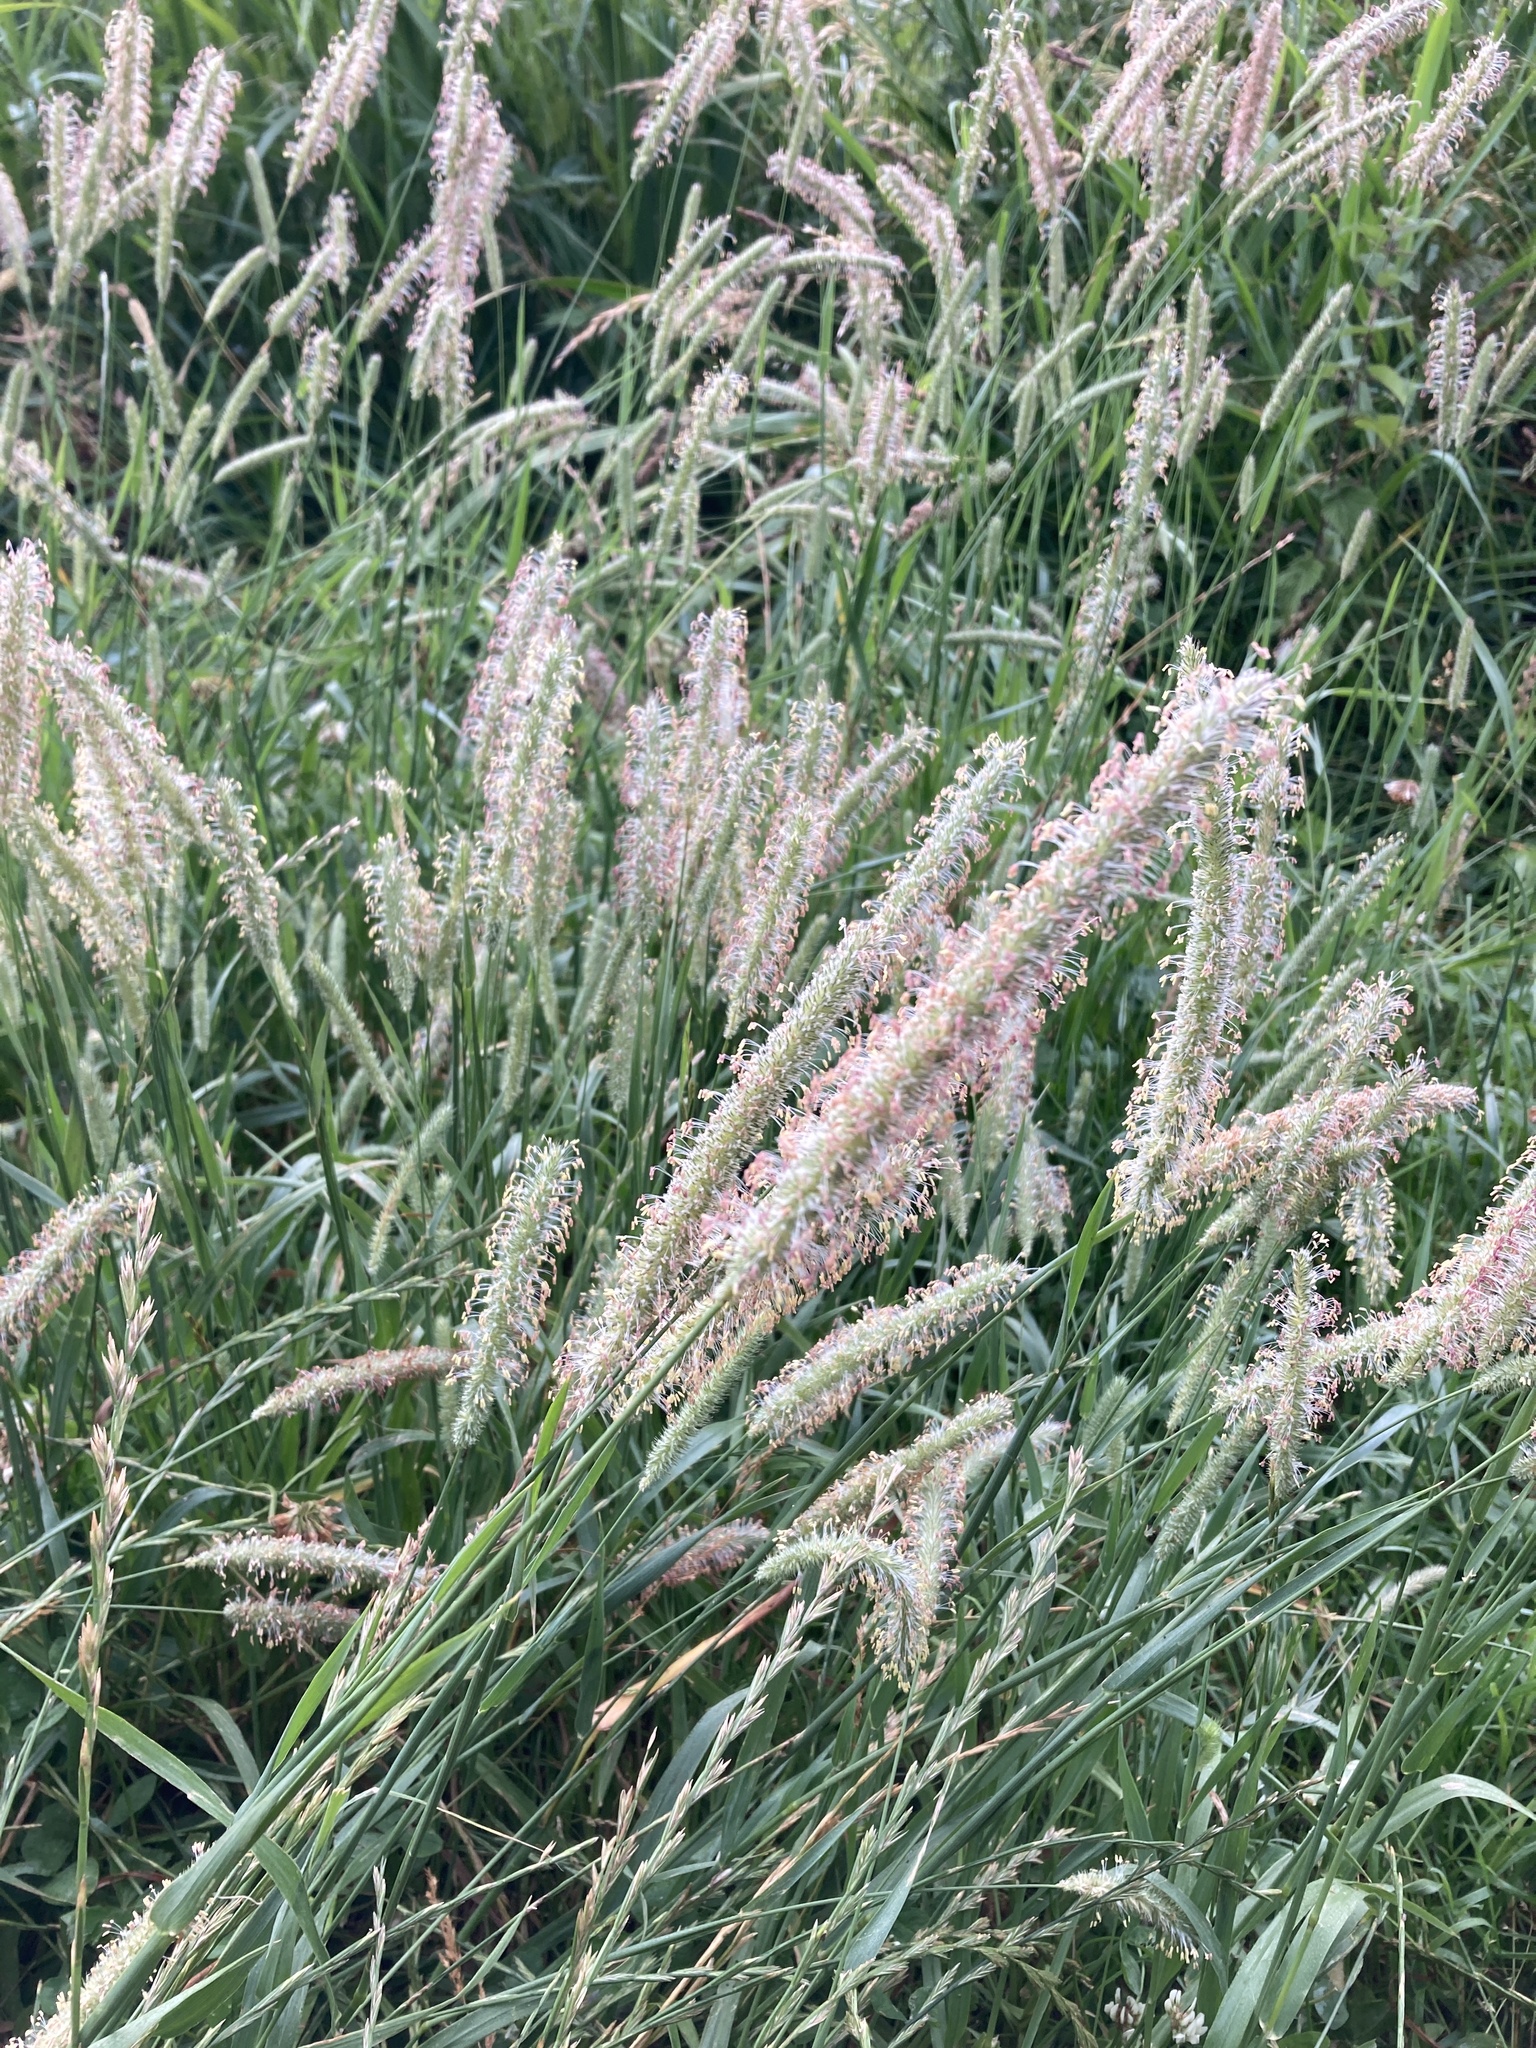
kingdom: Plantae
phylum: Tracheophyta
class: Liliopsida
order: Poales
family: Poaceae
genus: Phleum
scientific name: Phleum pratense
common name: Timothy grass
